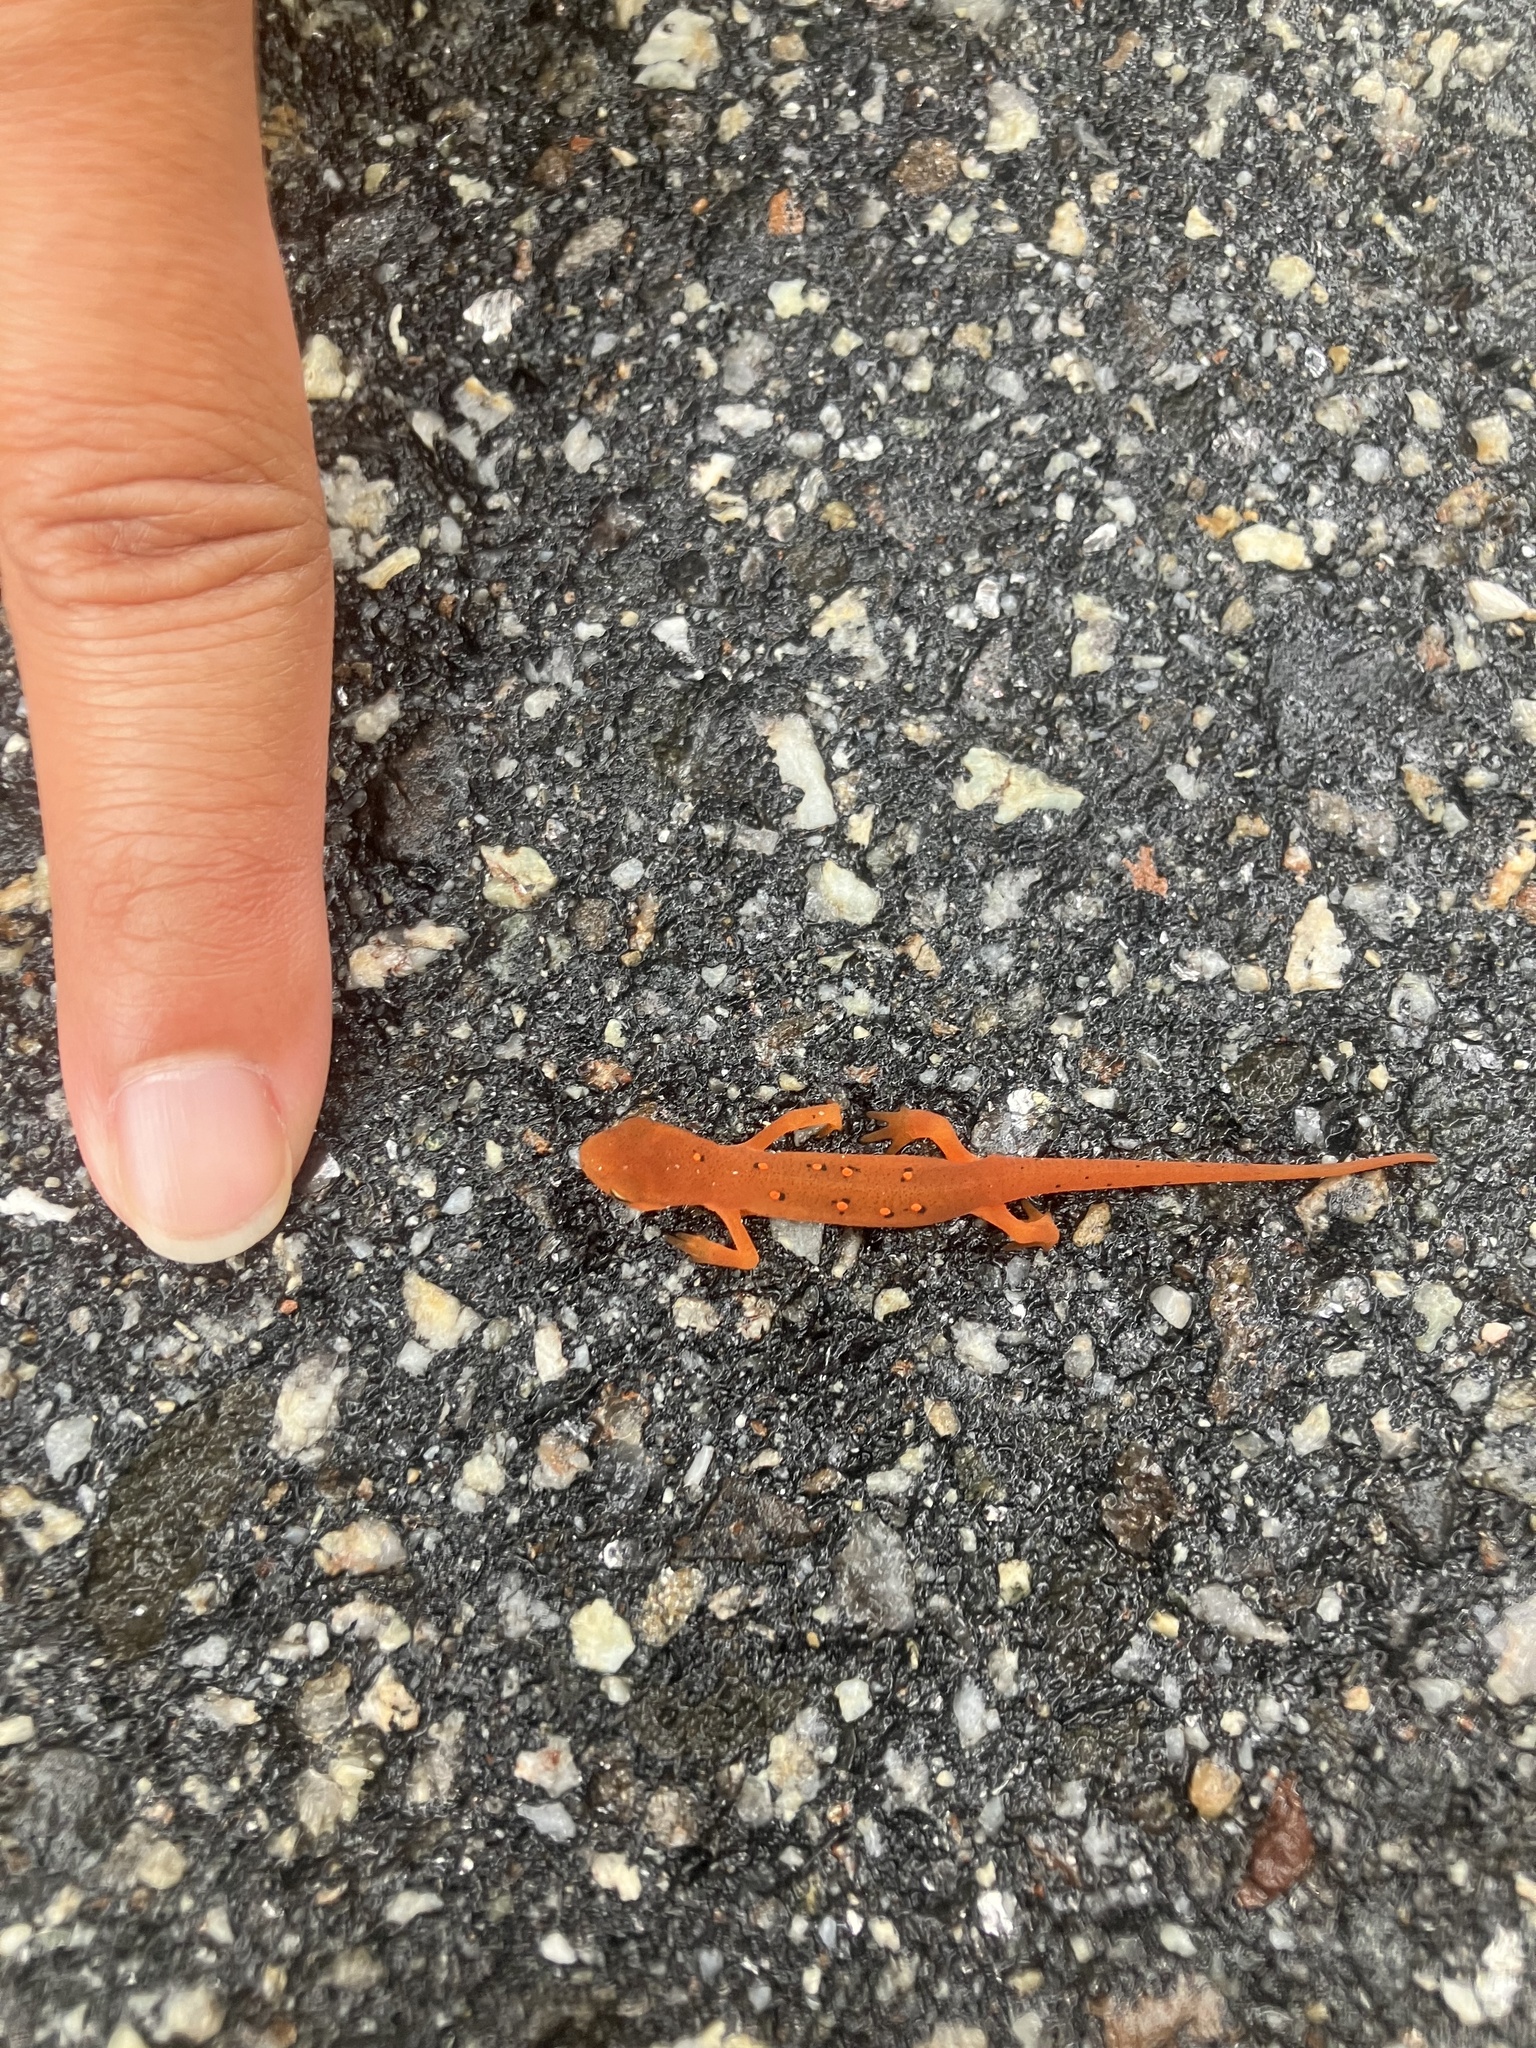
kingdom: Animalia
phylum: Chordata
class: Amphibia
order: Caudata
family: Salamandridae
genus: Notophthalmus
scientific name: Notophthalmus viridescens
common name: Eastern newt
